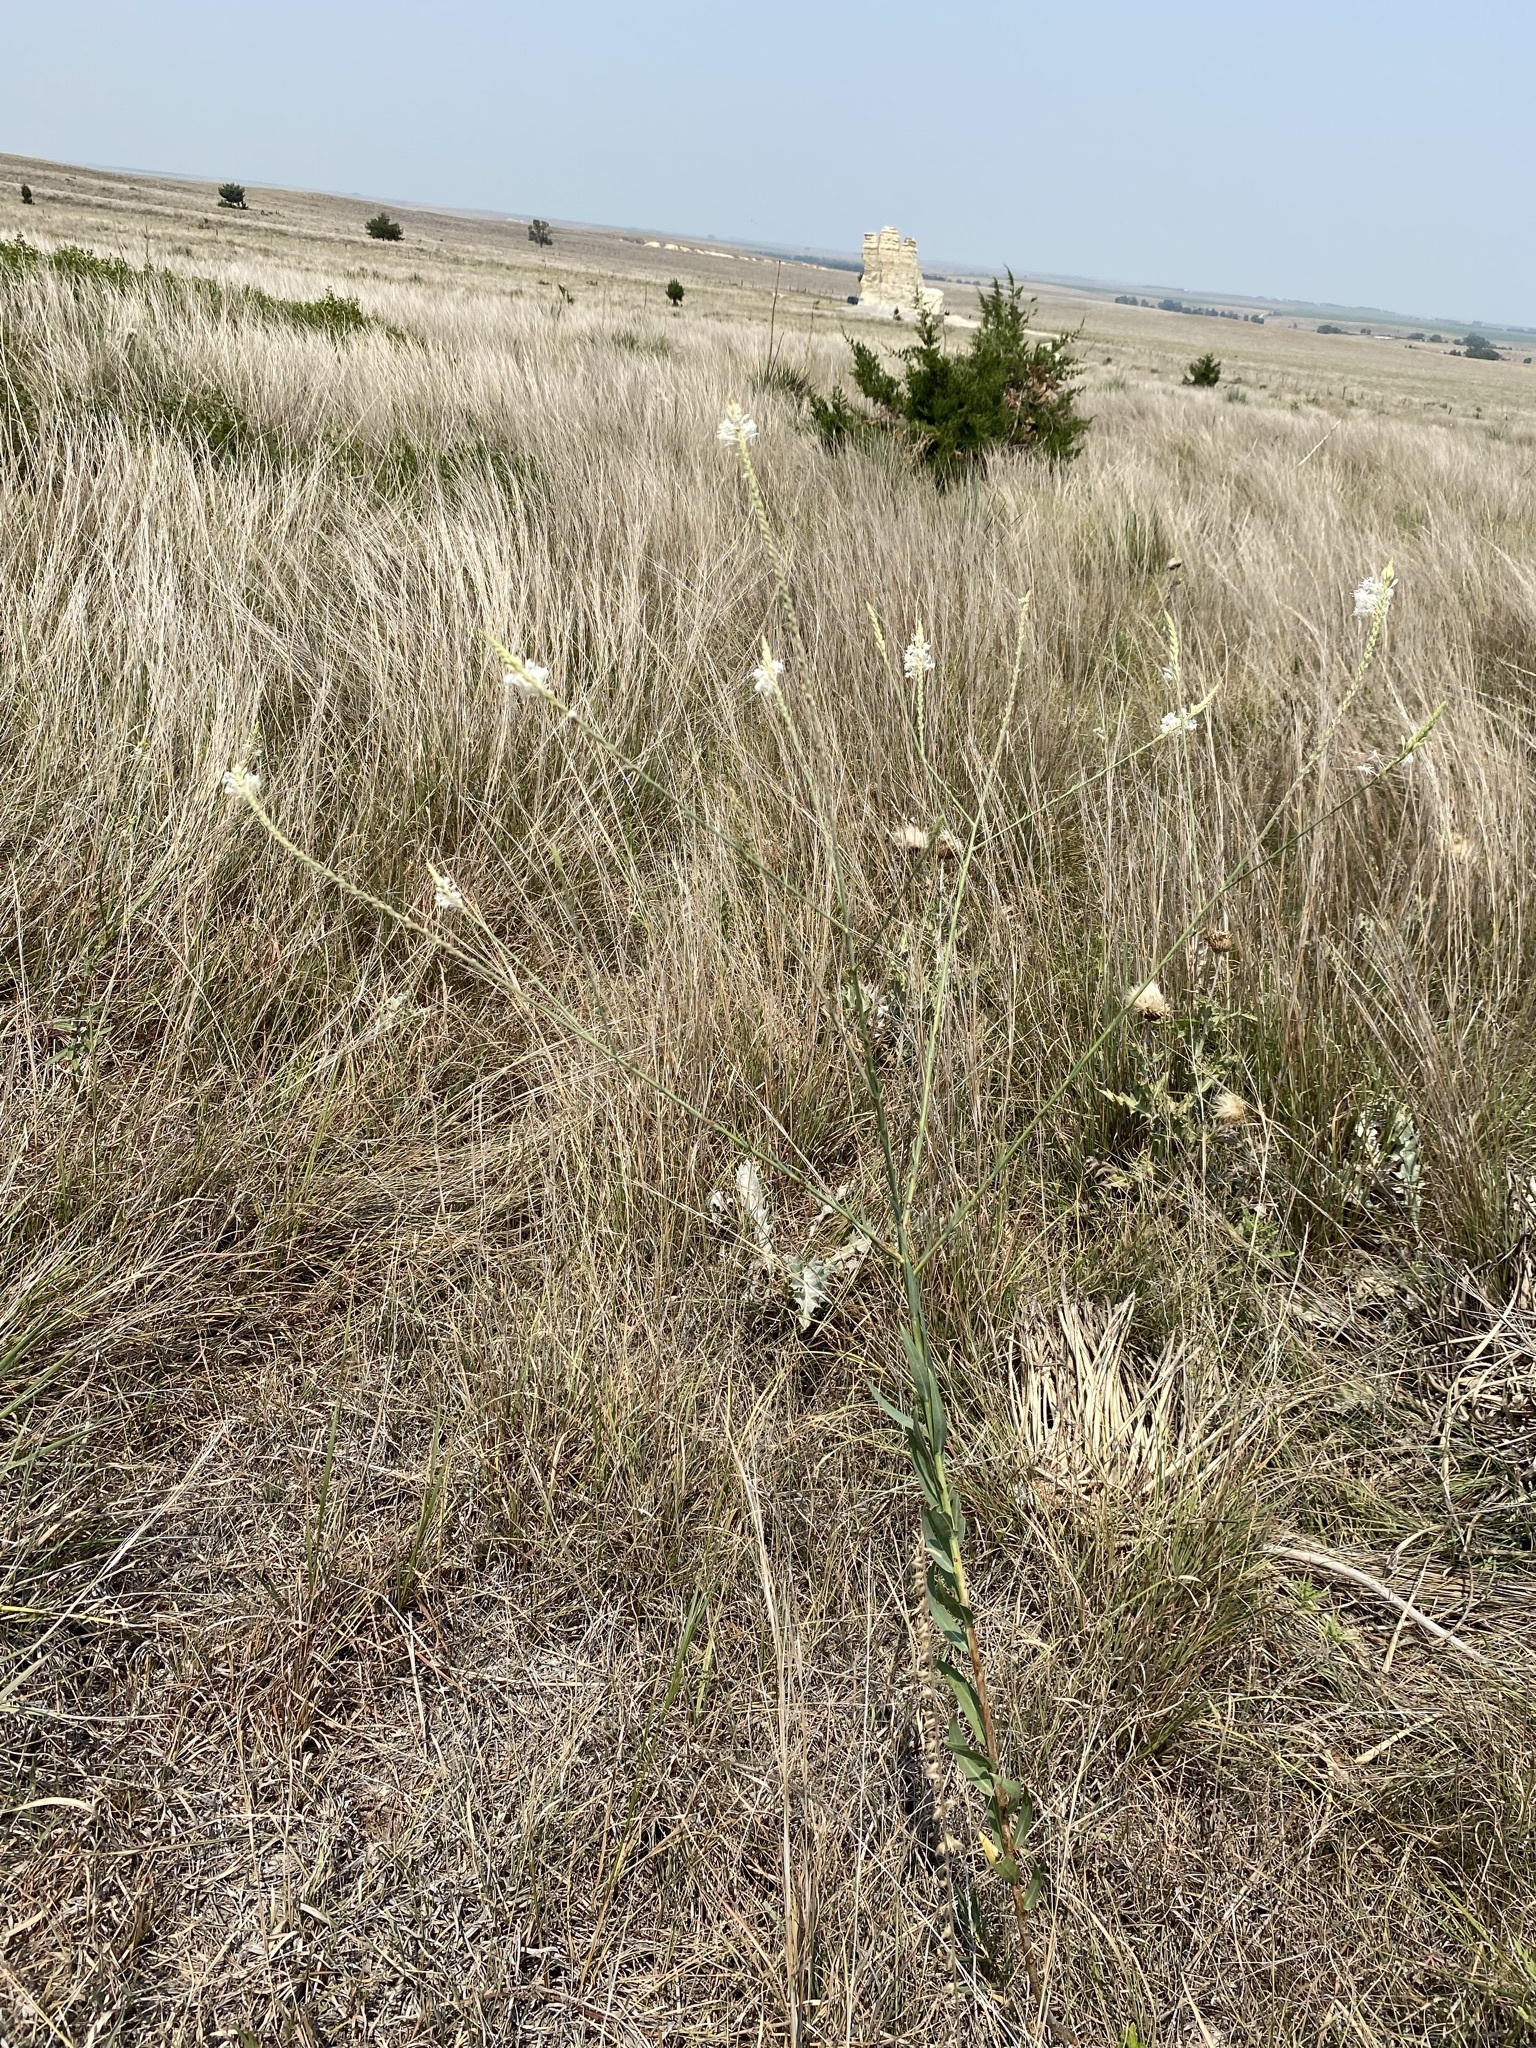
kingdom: Plantae
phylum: Tracheophyta
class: Magnoliopsida
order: Myrtales
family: Onagraceae
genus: Oenothera
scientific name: Oenothera glaucifolia
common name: False gaura
